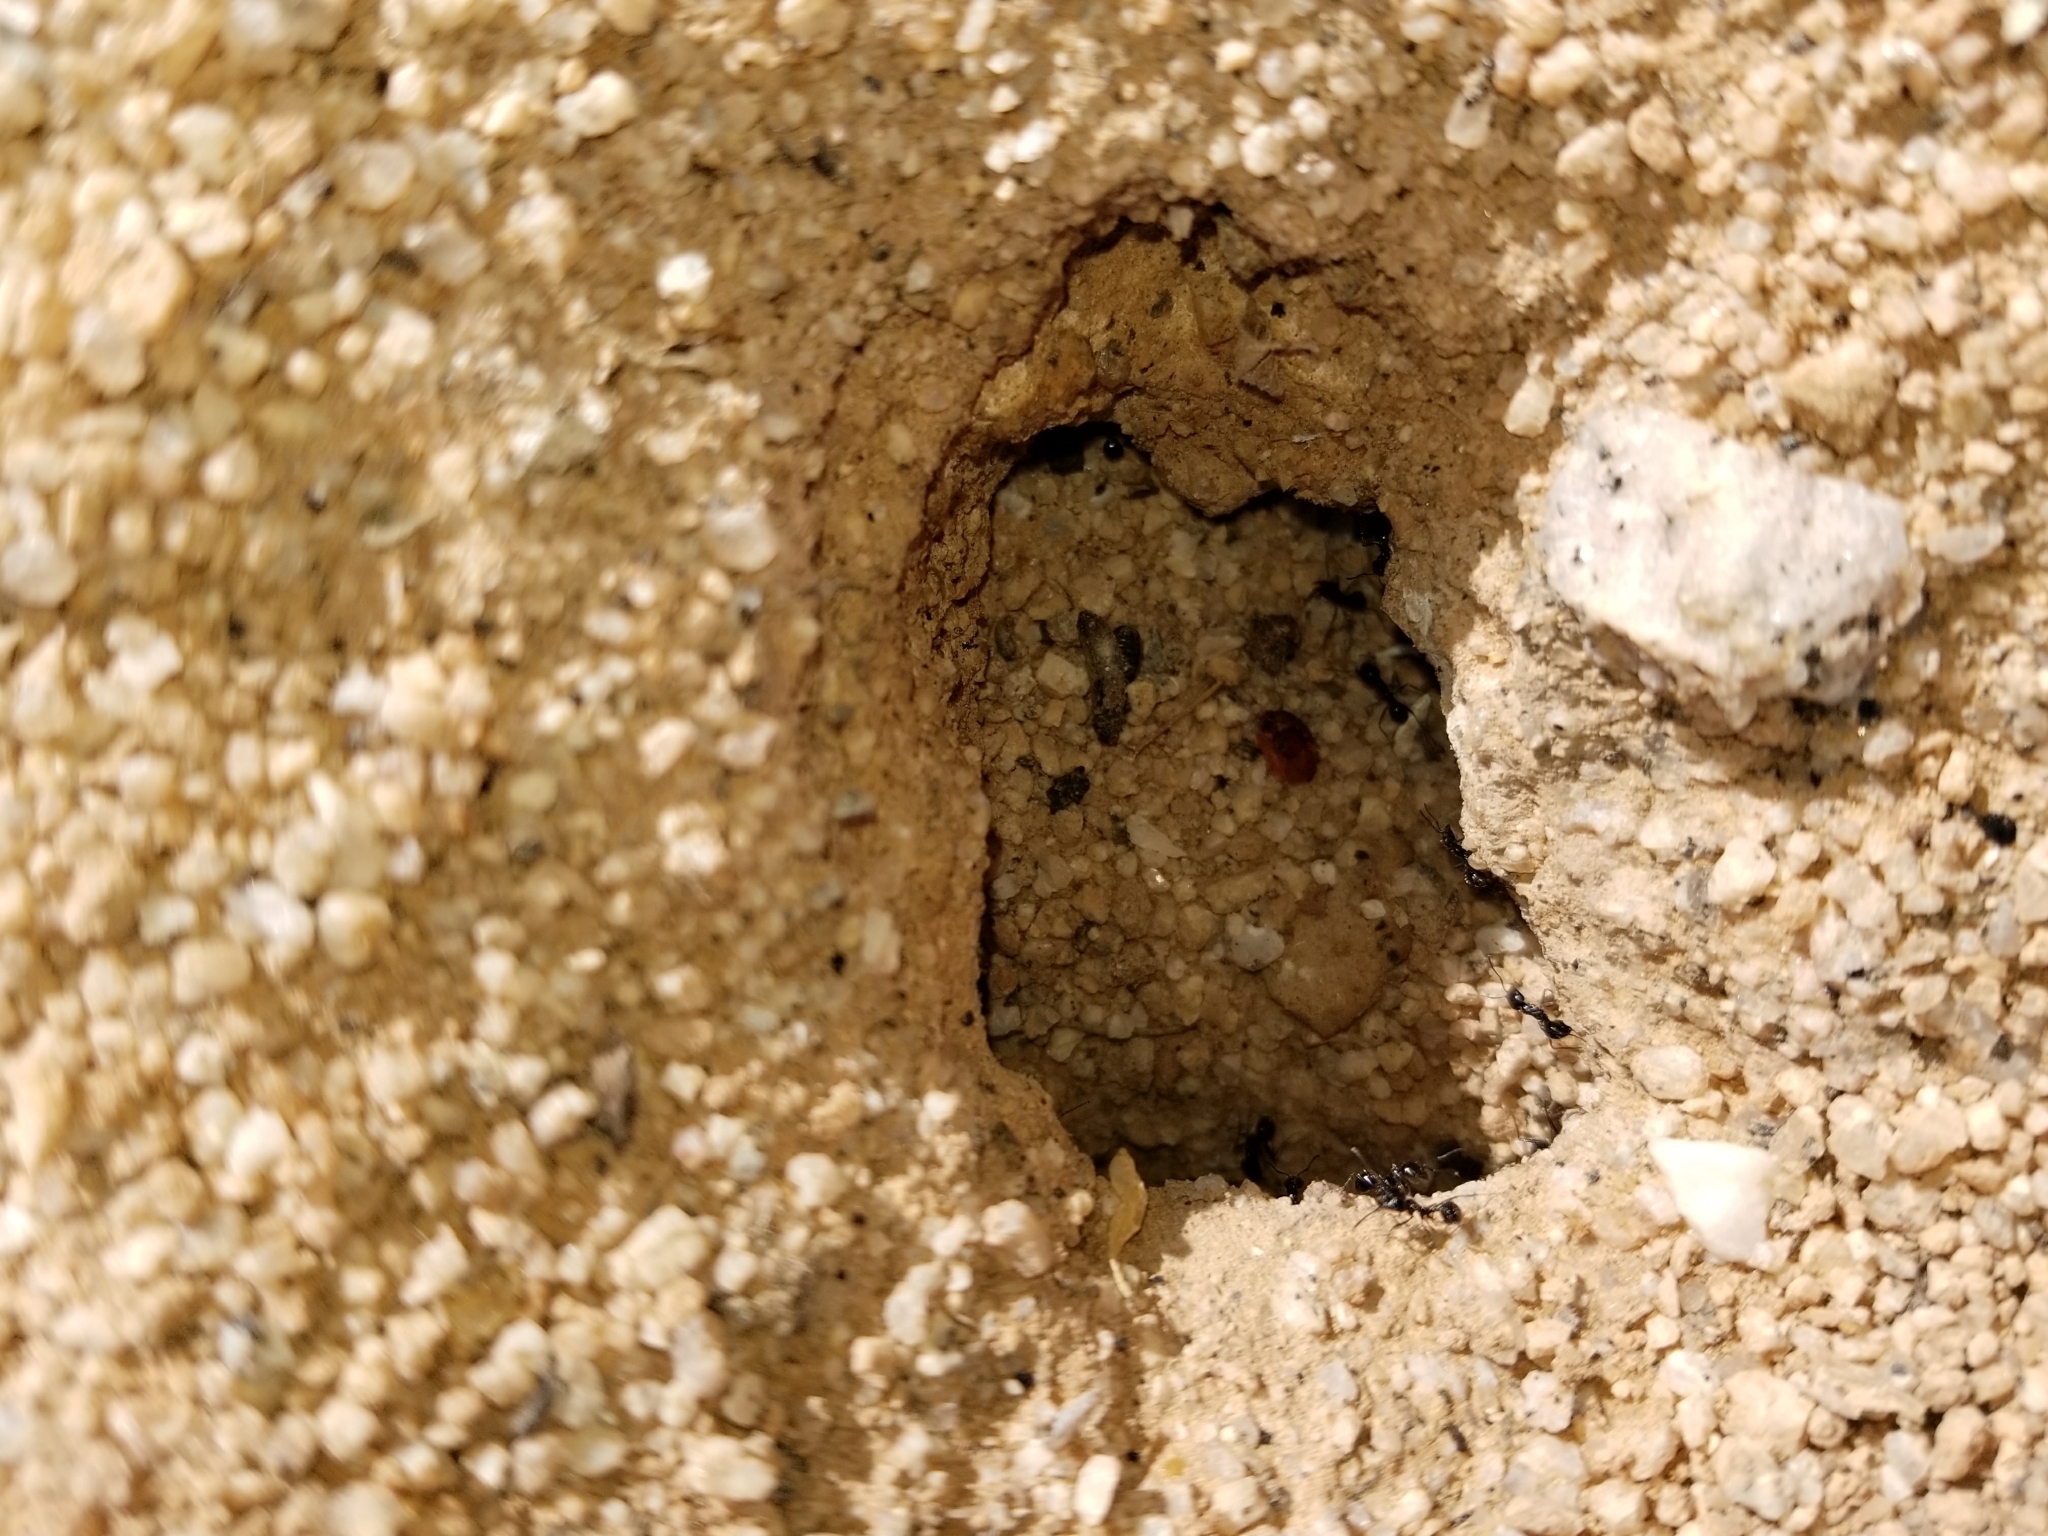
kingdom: Animalia
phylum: Arthropoda
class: Insecta
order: Hymenoptera
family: Formicidae
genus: Messor
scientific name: Messor pergandei
